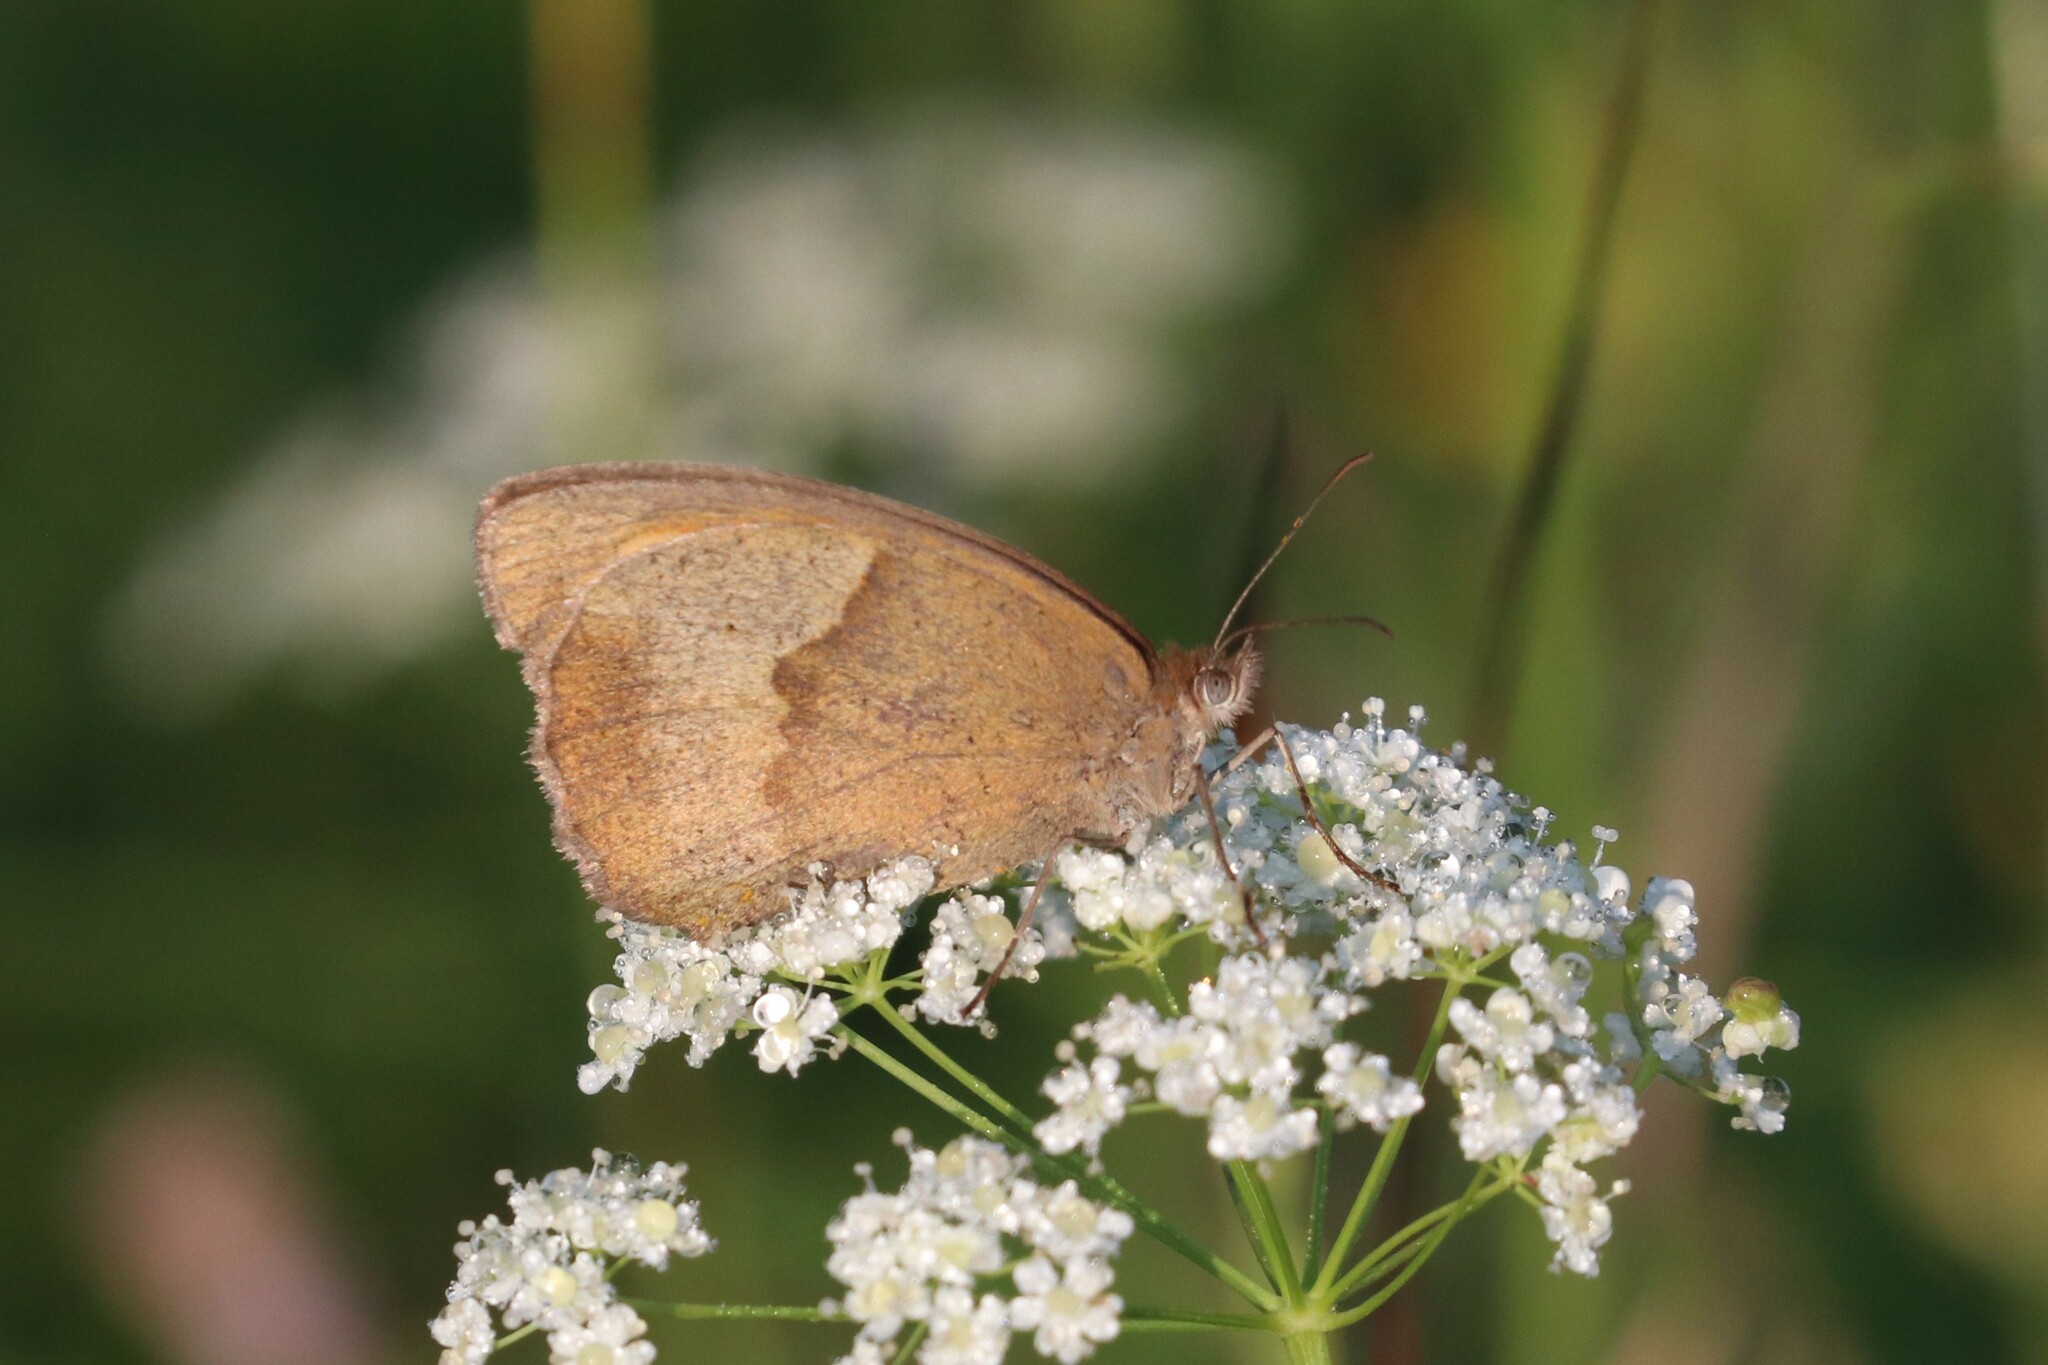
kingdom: Animalia
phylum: Arthropoda
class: Insecta
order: Lepidoptera
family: Nymphalidae
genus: Maniola
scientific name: Maniola jurtina
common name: Meadow brown
